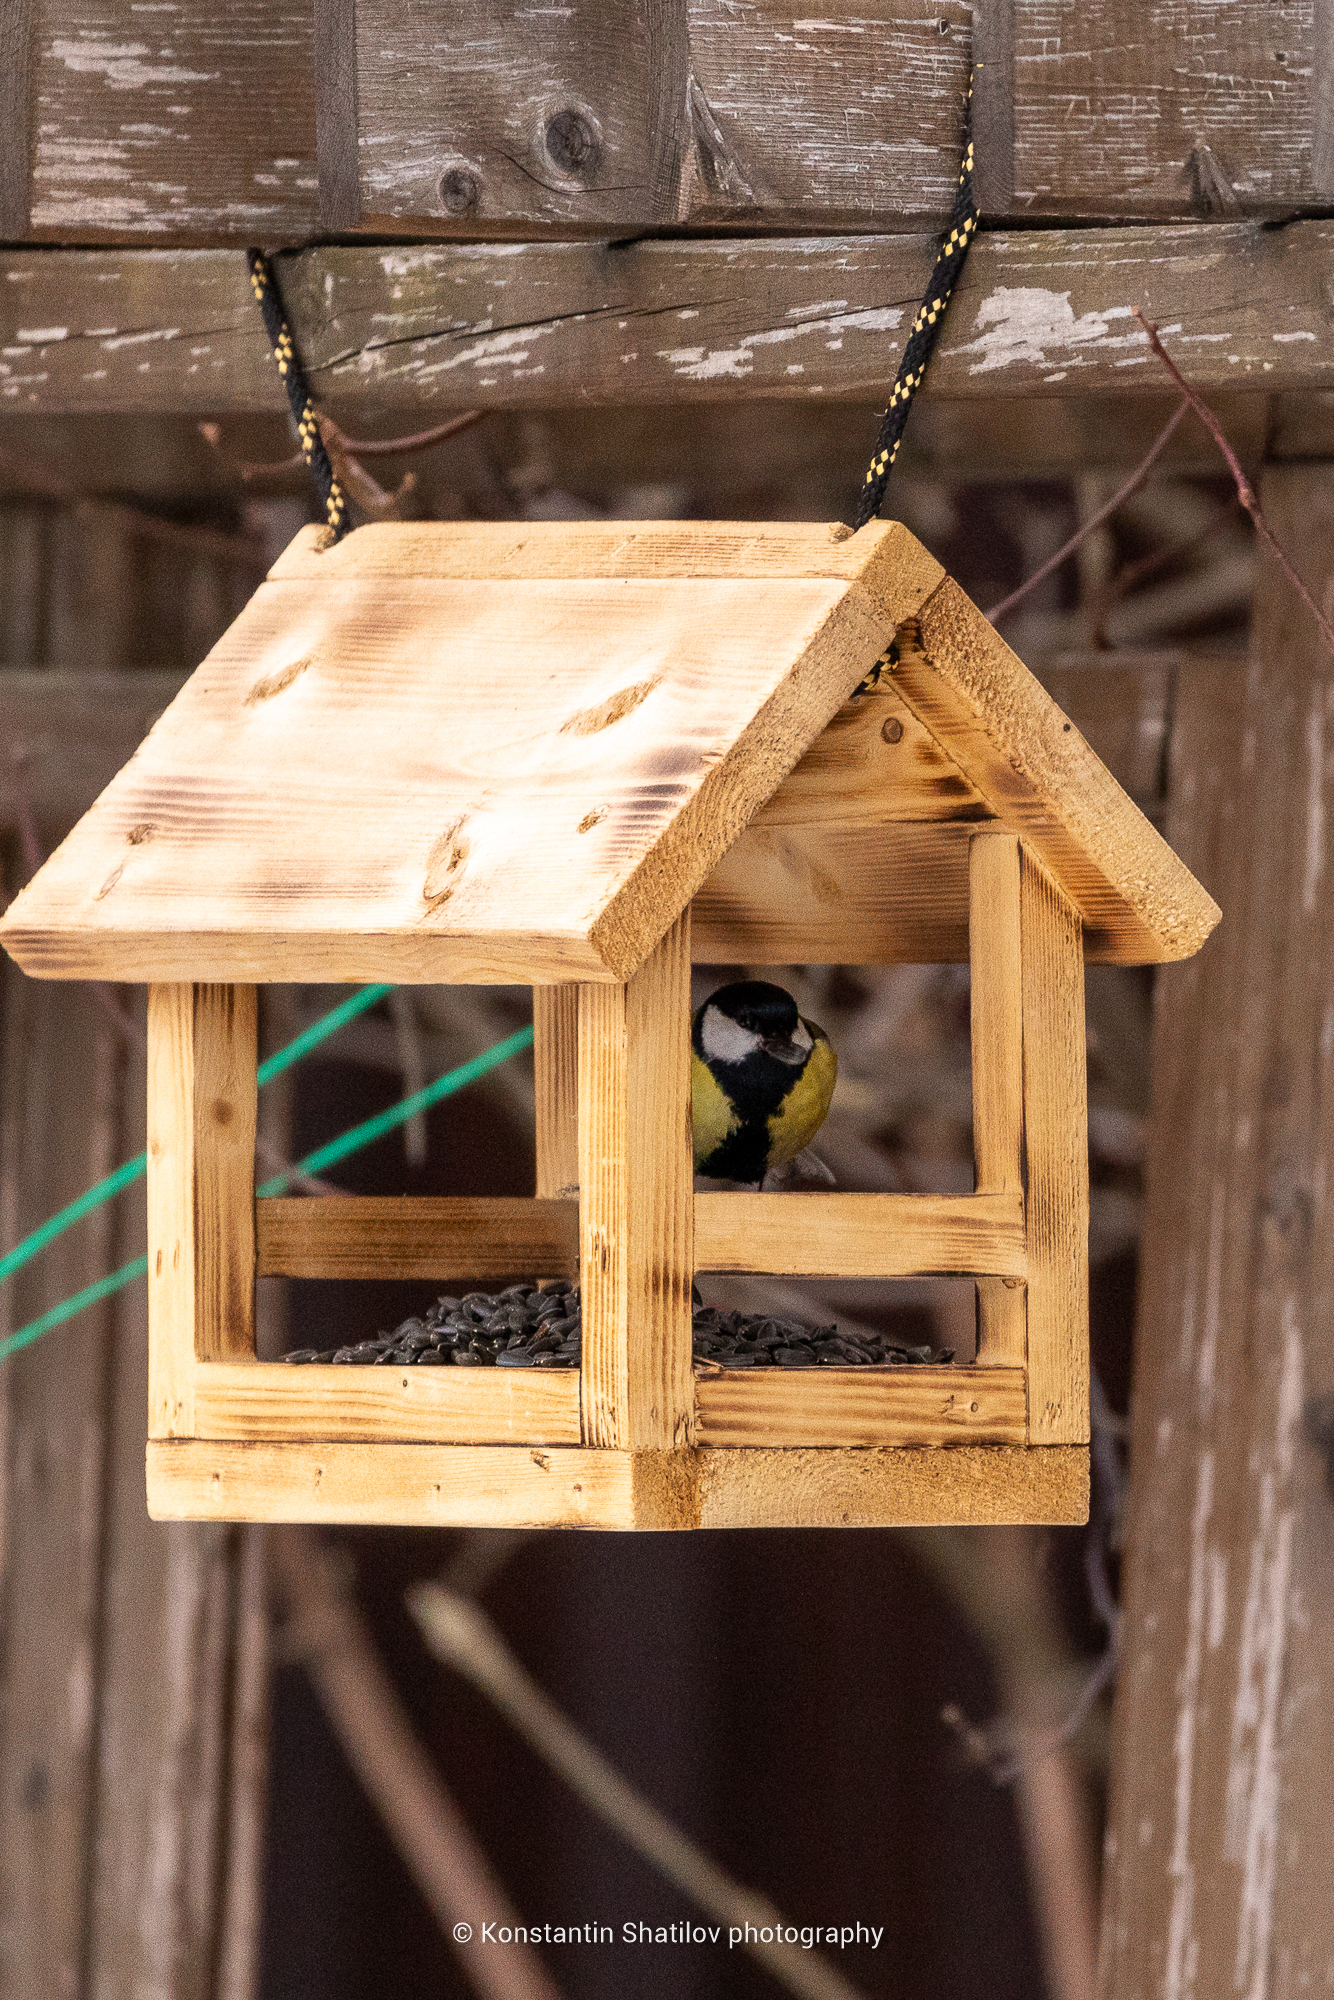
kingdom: Animalia
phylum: Chordata
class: Aves
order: Passeriformes
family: Paridae
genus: Parus
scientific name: Parus major
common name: Great tit
